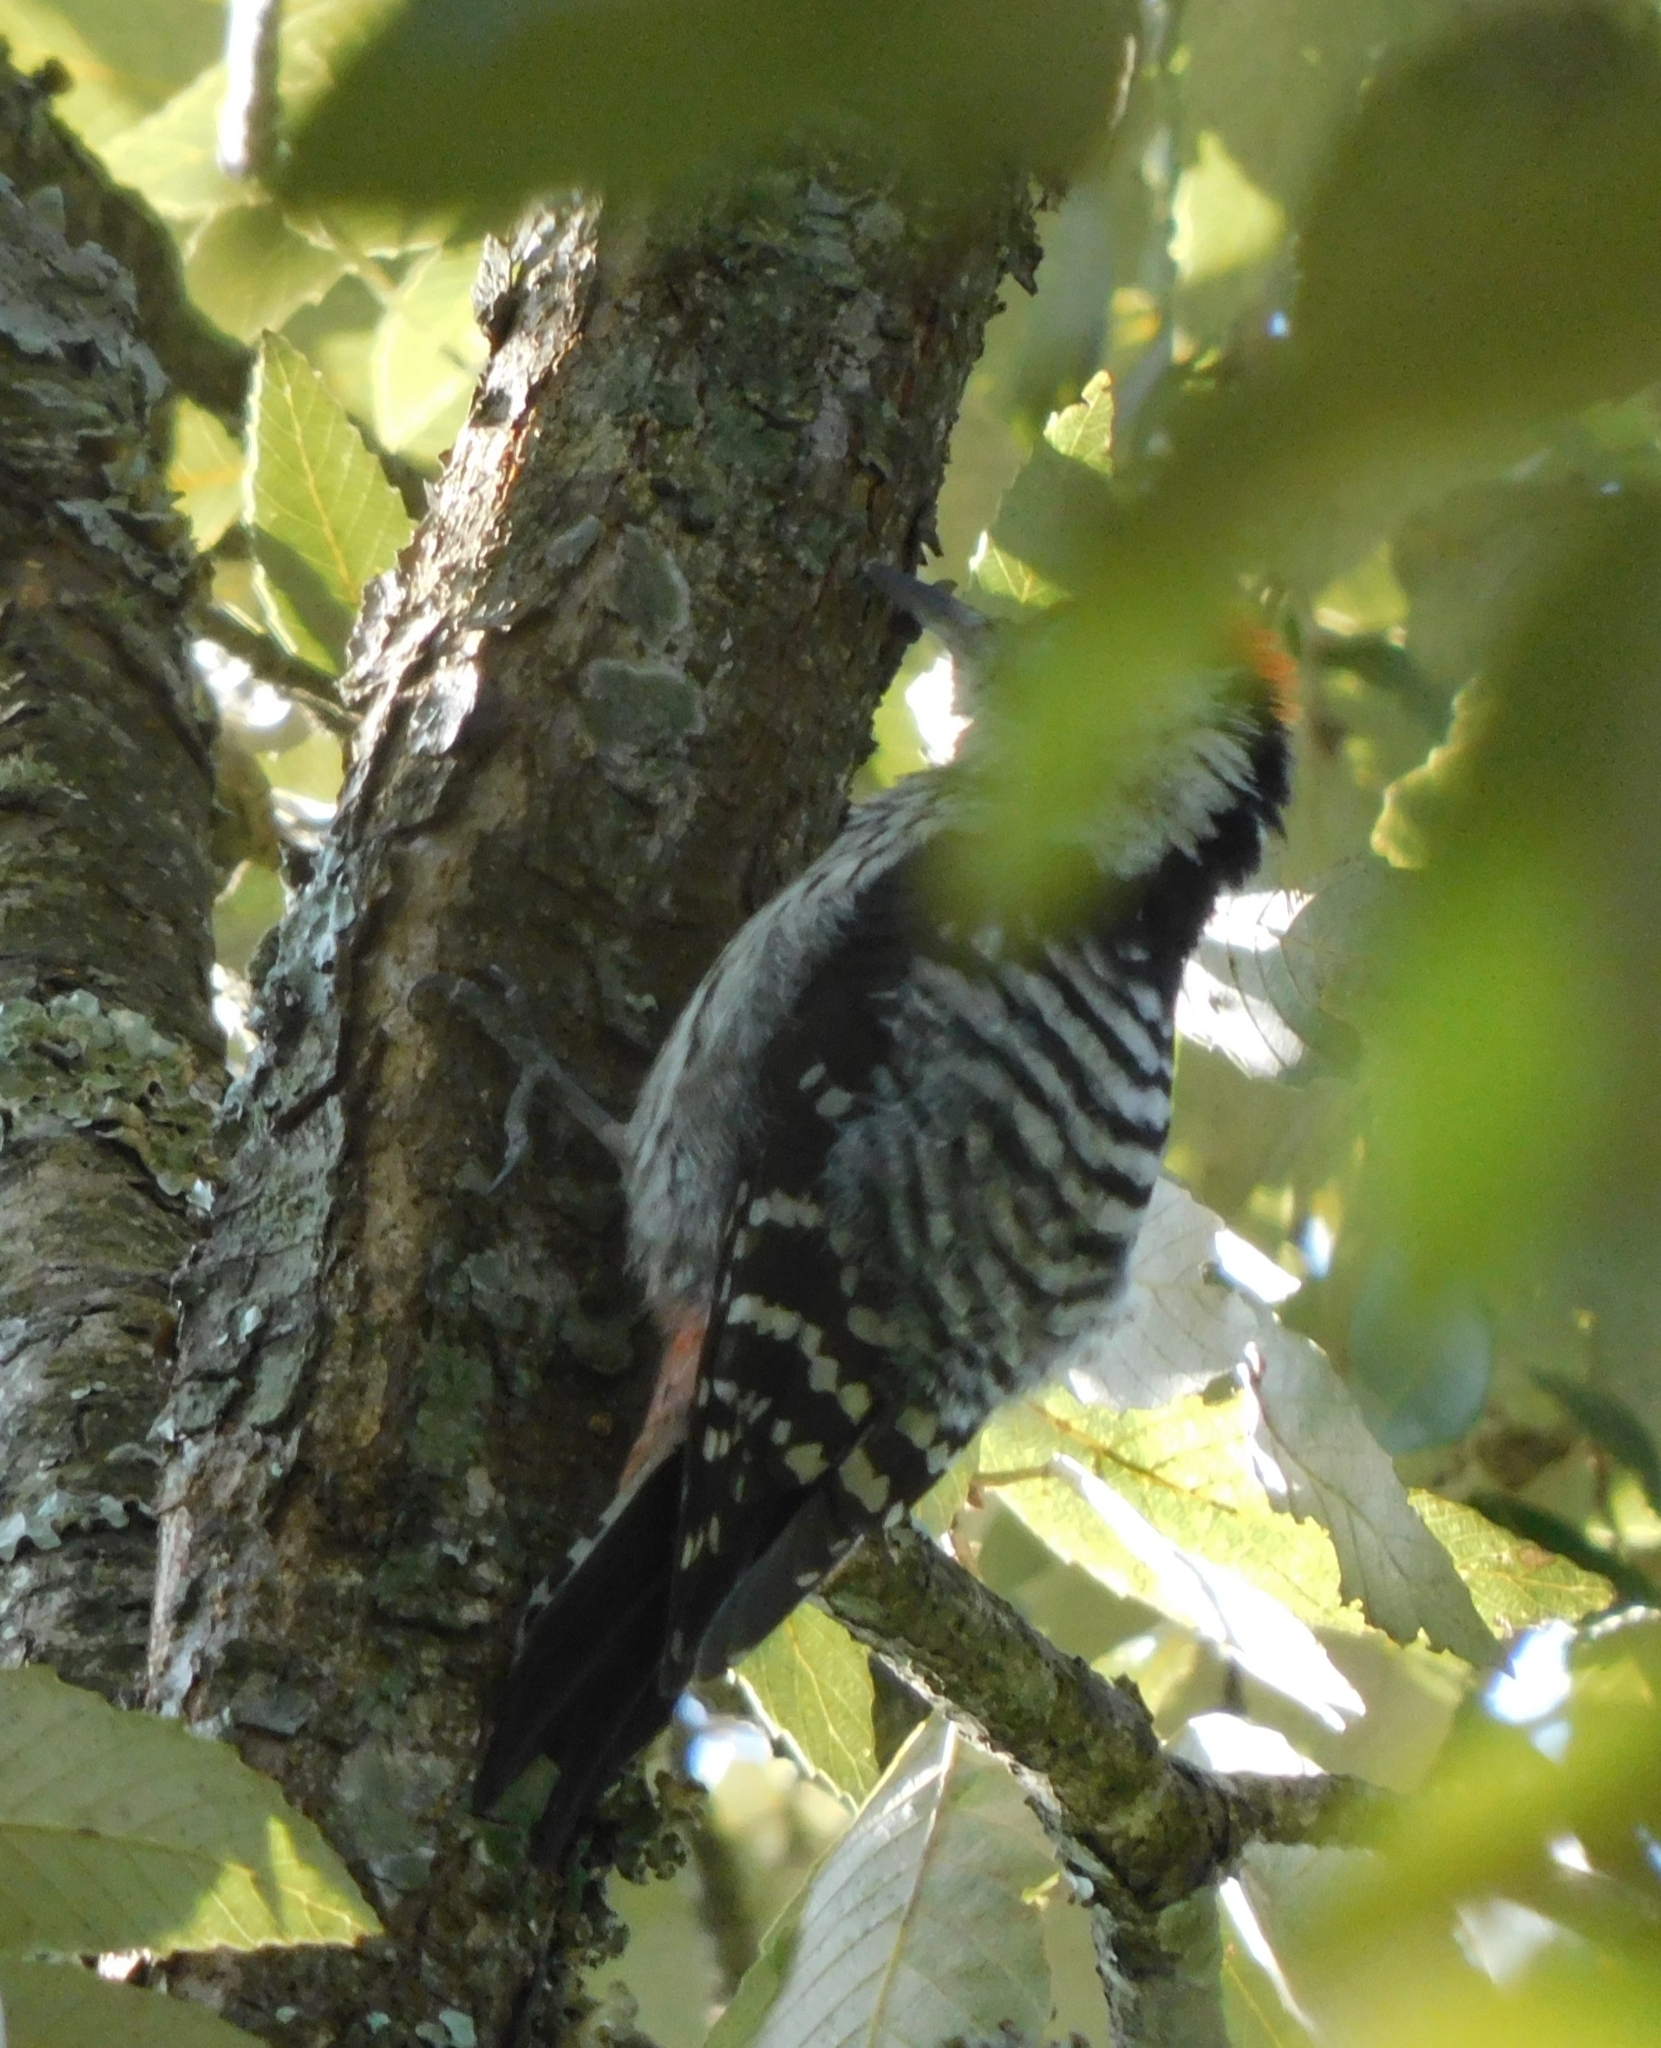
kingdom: Animalia
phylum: Chordata
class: Aves
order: Piciformes
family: Picidae
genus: Dendrocoptes
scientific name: Dendrocoptes auriceps
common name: Brown-fronted woodpecker
